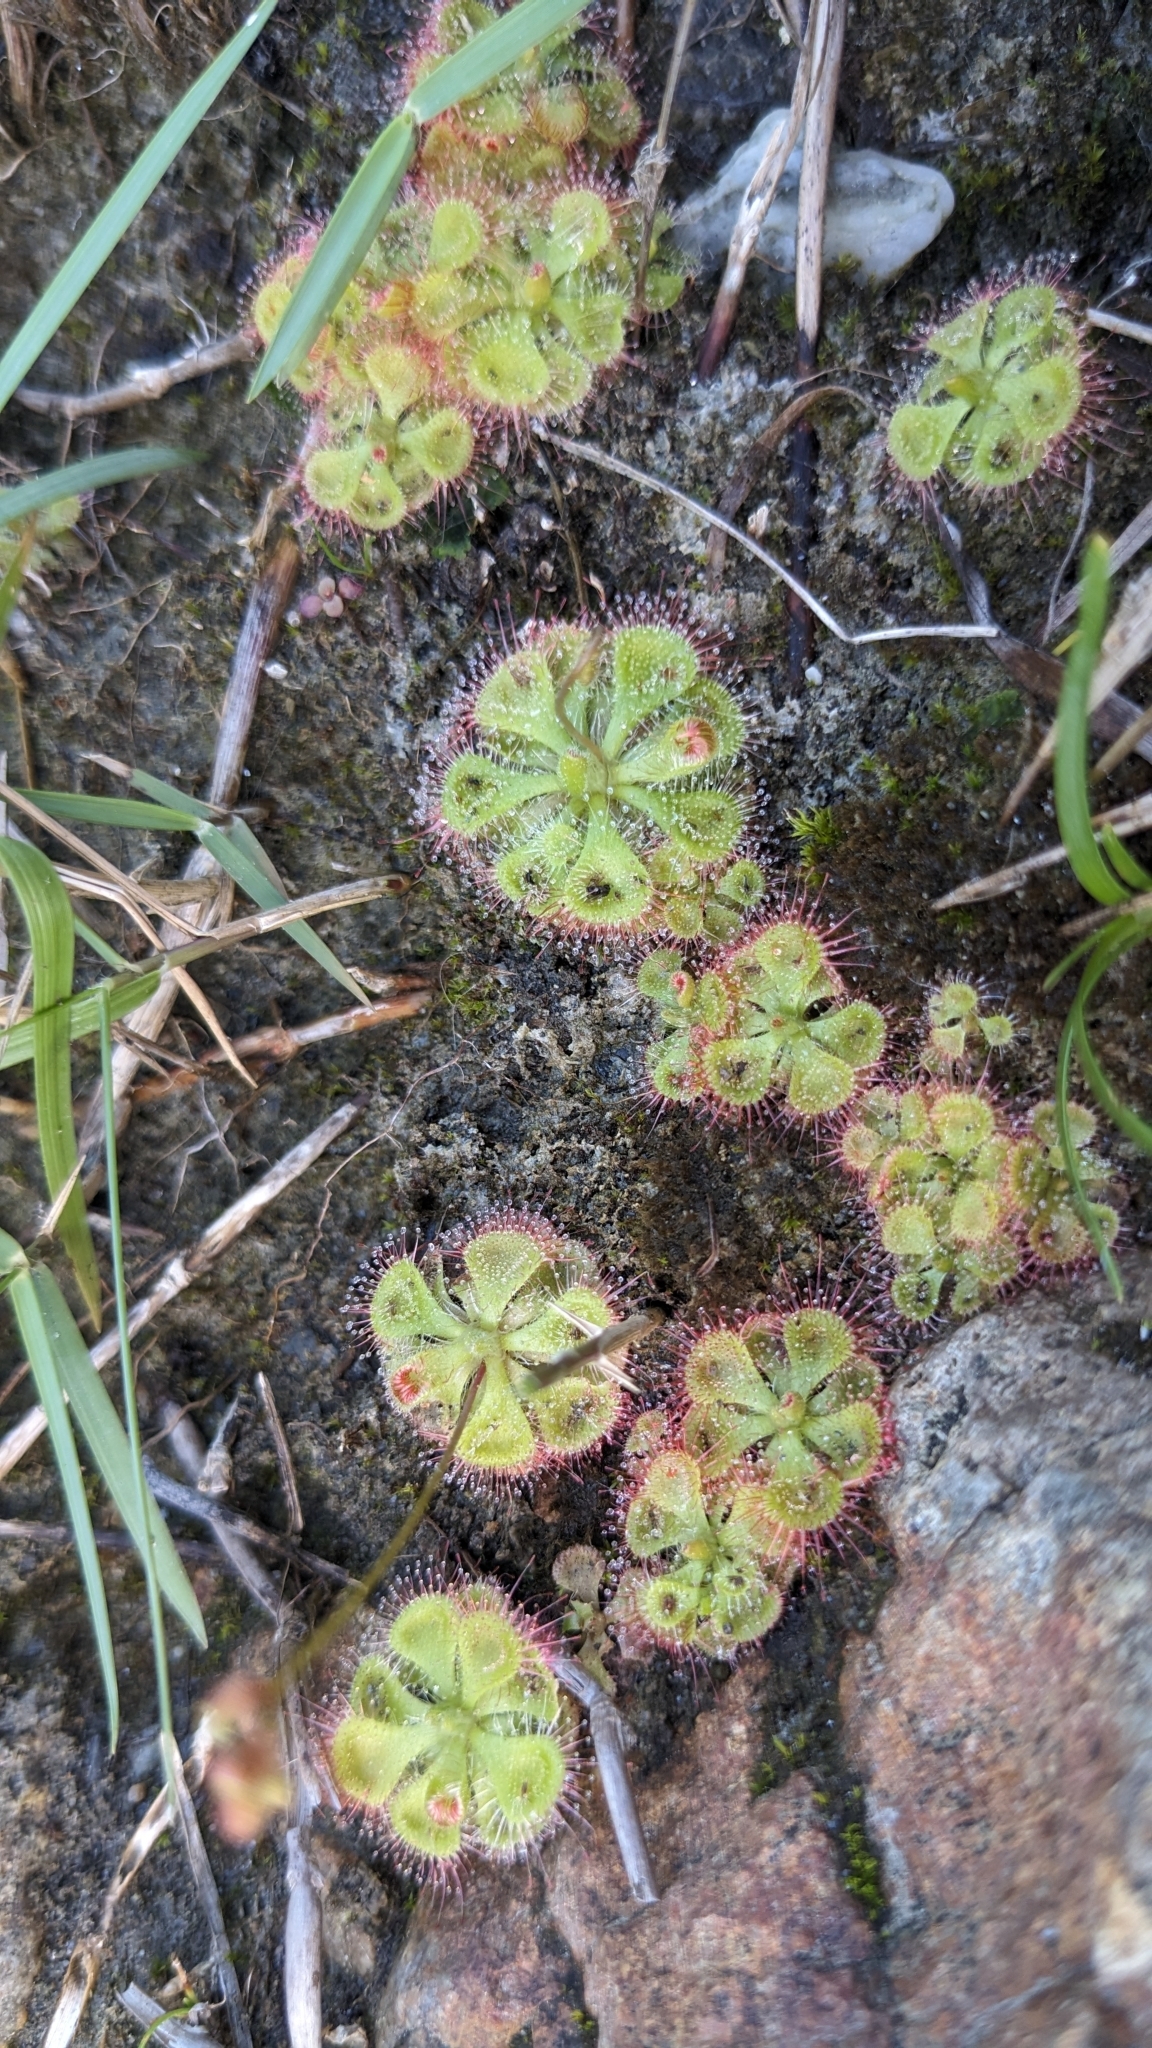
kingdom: Plantae
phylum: Tracheophyta
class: Magnoliopsida
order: Caryophyllales
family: Droseraceae
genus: Drosera
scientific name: Drosera spatulata
